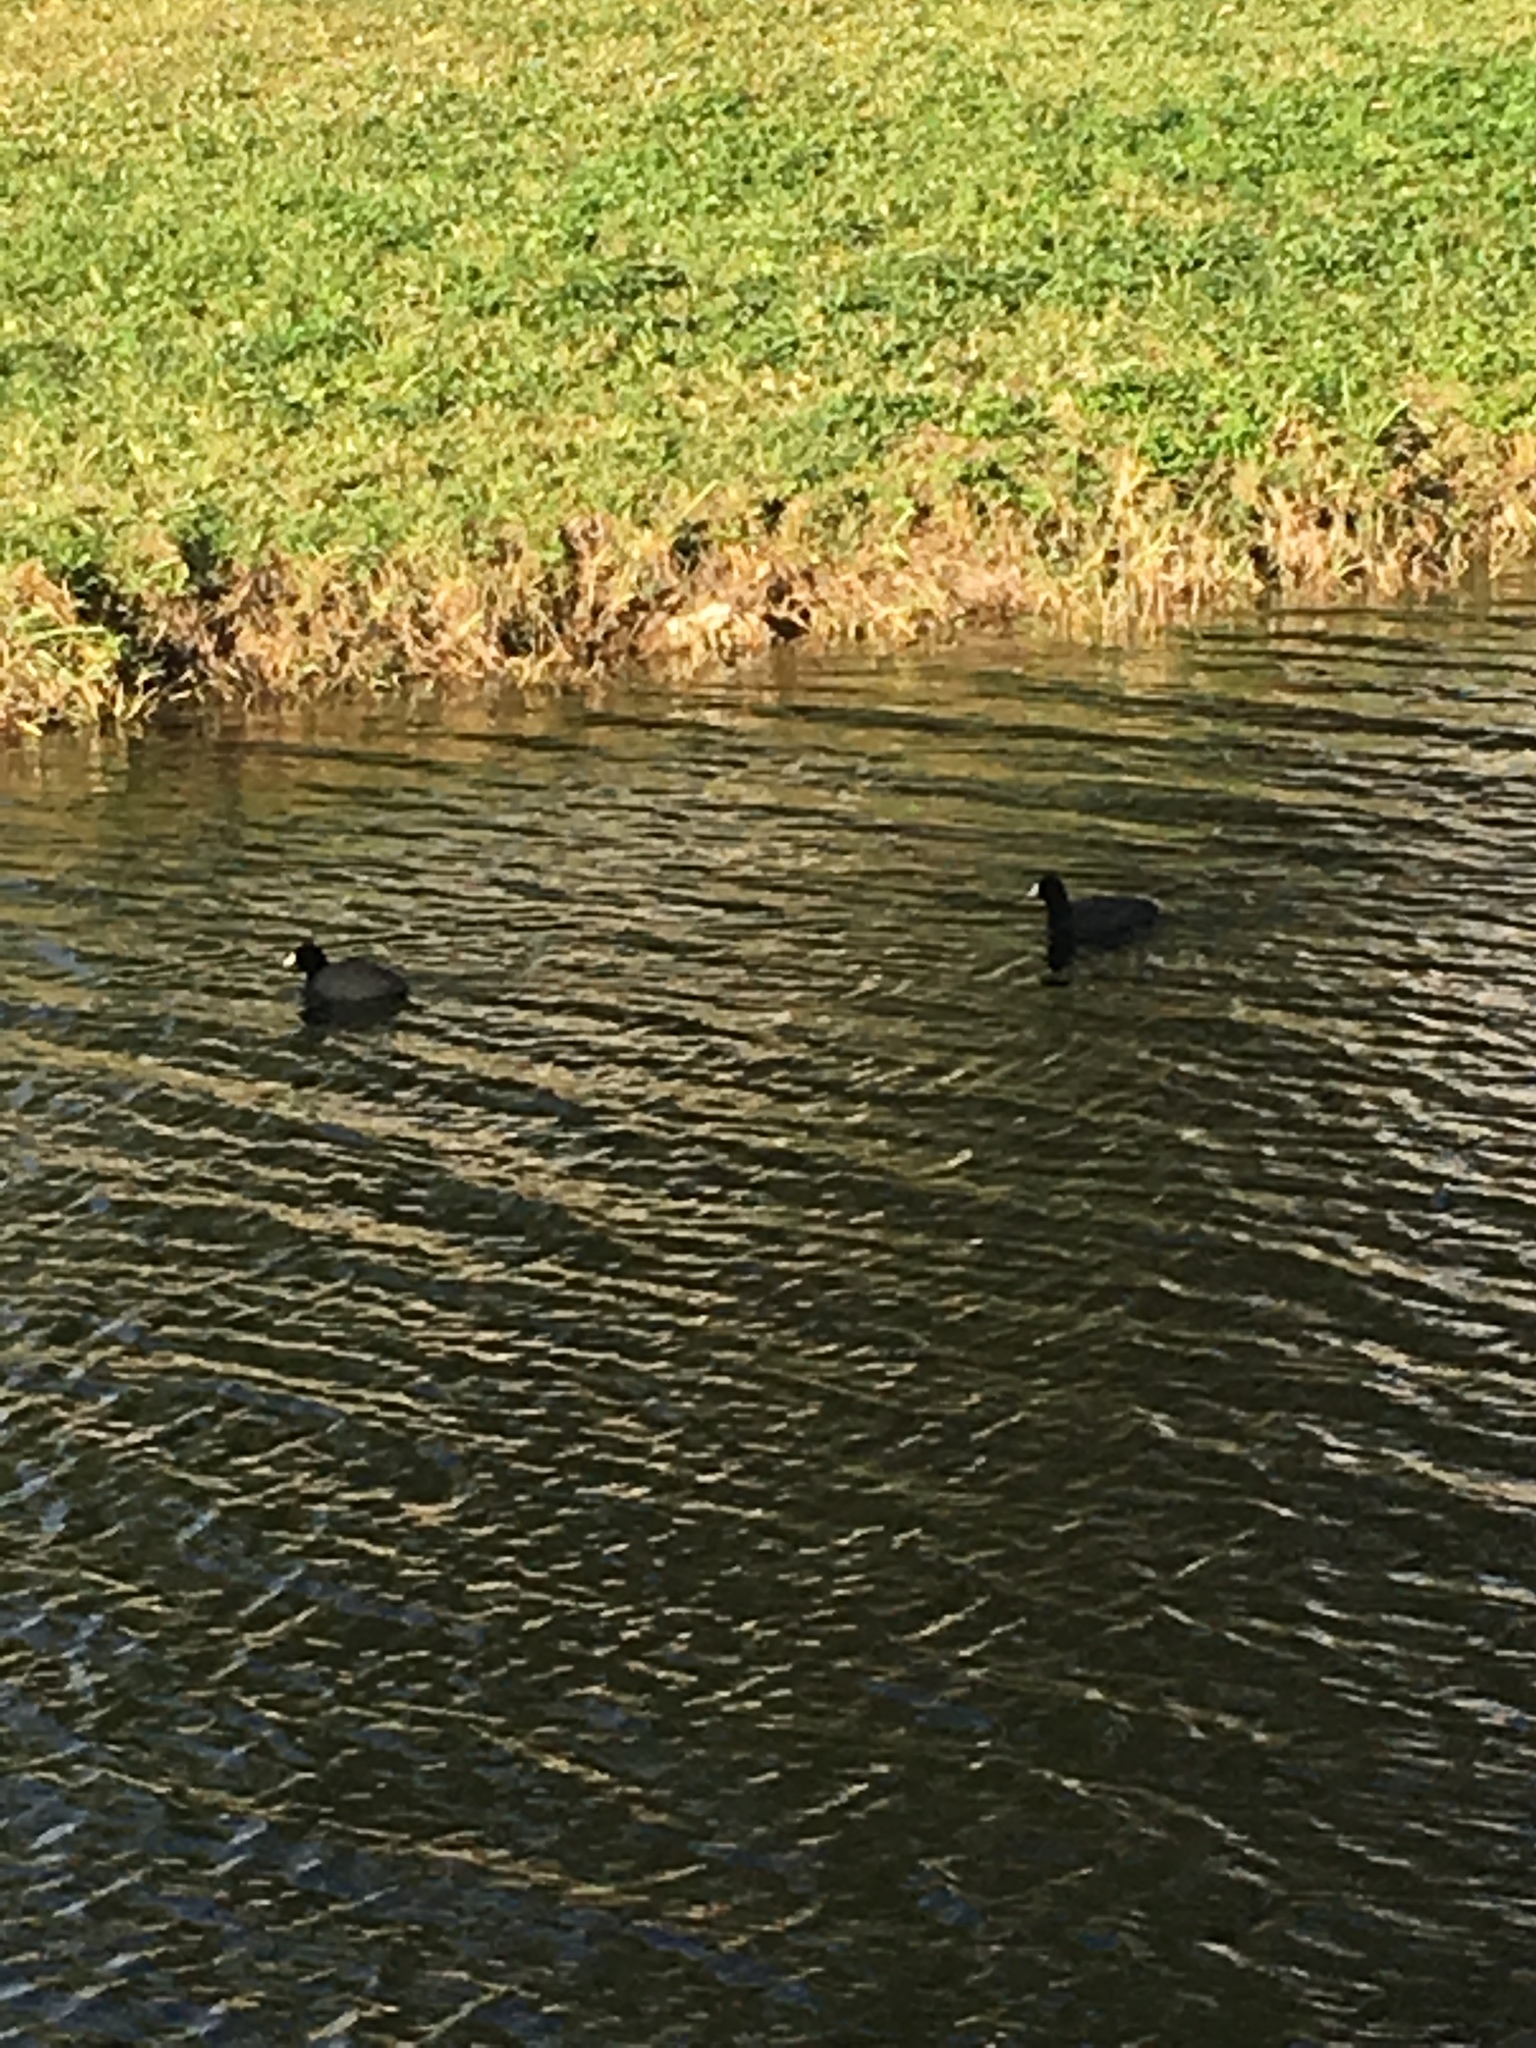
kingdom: Animalia
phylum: Chordata
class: Aves
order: Gruiformes
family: Rallidae
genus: Fulica
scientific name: Fulica americana
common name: American coot
